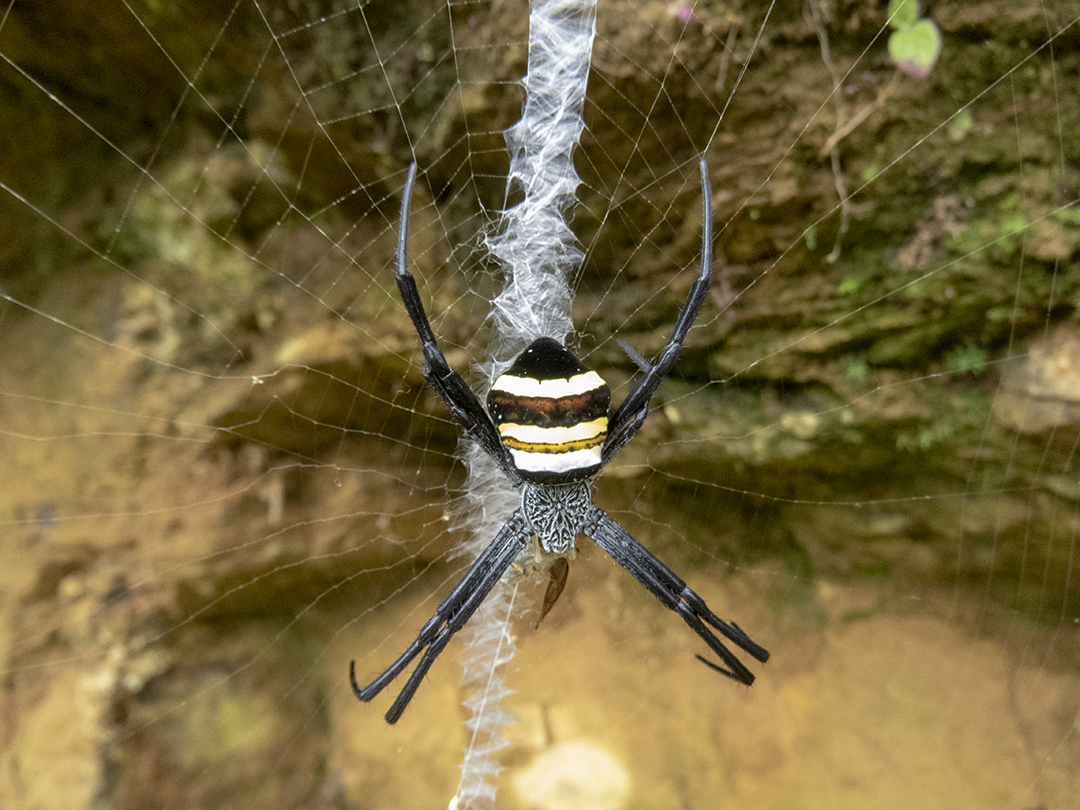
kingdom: Animalia
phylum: Arthropoda
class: Arachnida
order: Araneae
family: Araneidae
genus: Argiope
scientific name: Argiope caesarea
